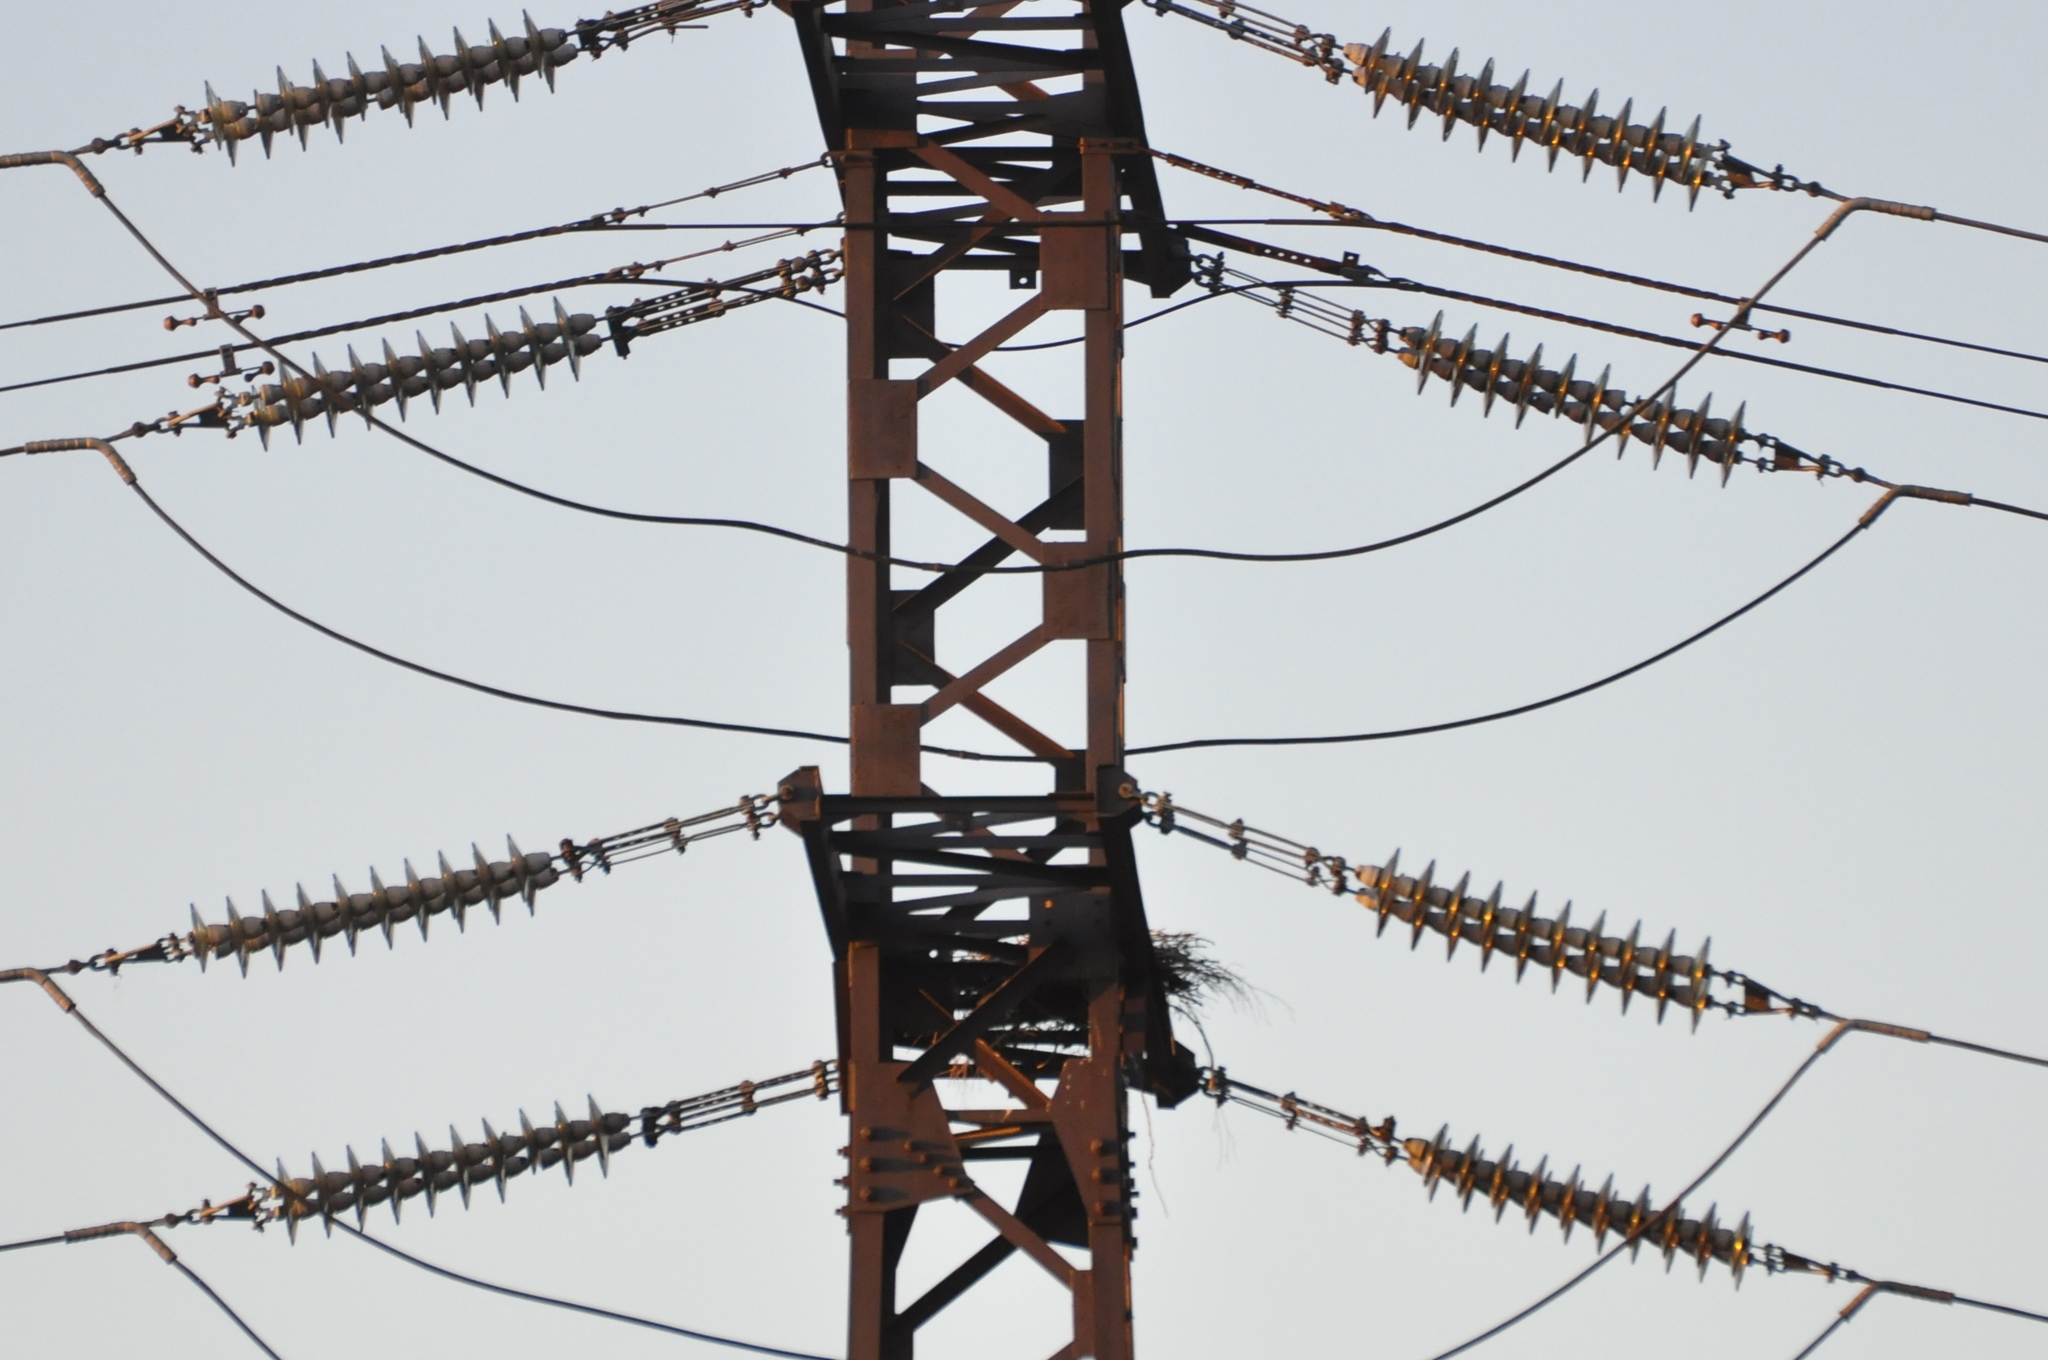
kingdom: Animalia
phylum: Chordata
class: Aves
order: Accipitriformes
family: Accipitridae
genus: Milvus
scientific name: Milvus migrans
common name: Black kite
